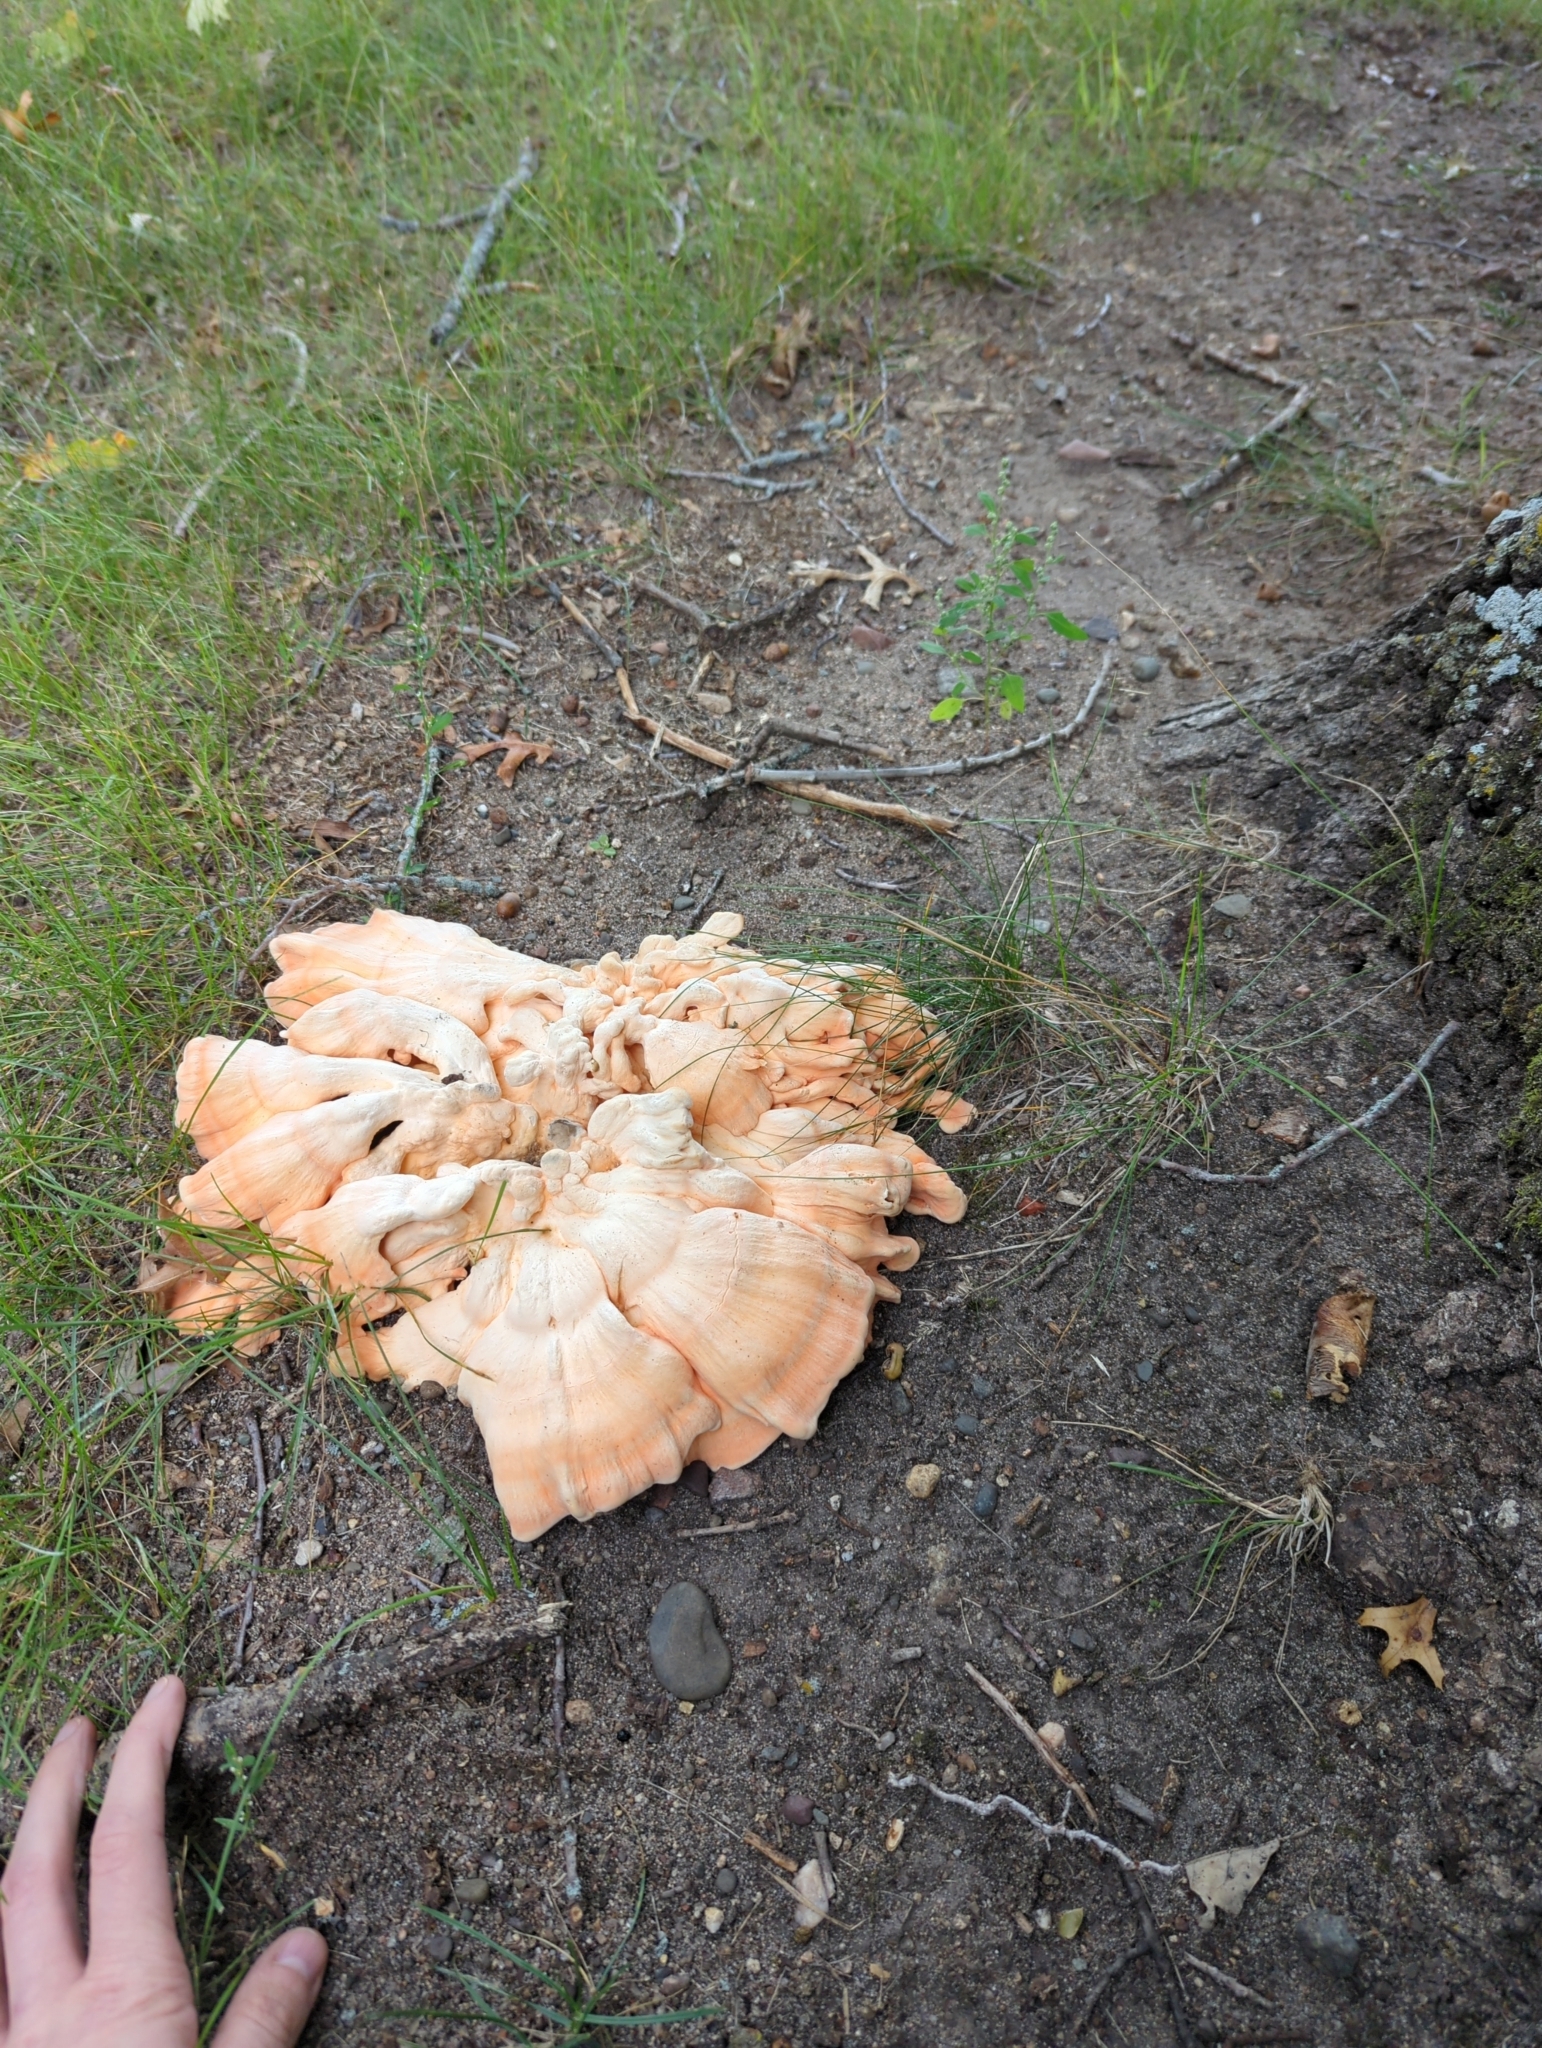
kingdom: Fungi
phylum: Basidiomycota
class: Agaricomycetes
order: Polyporales
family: Laetiporaceae
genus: Laetiporus
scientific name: Laetiporus sulphureus
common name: Chicken of the woods
